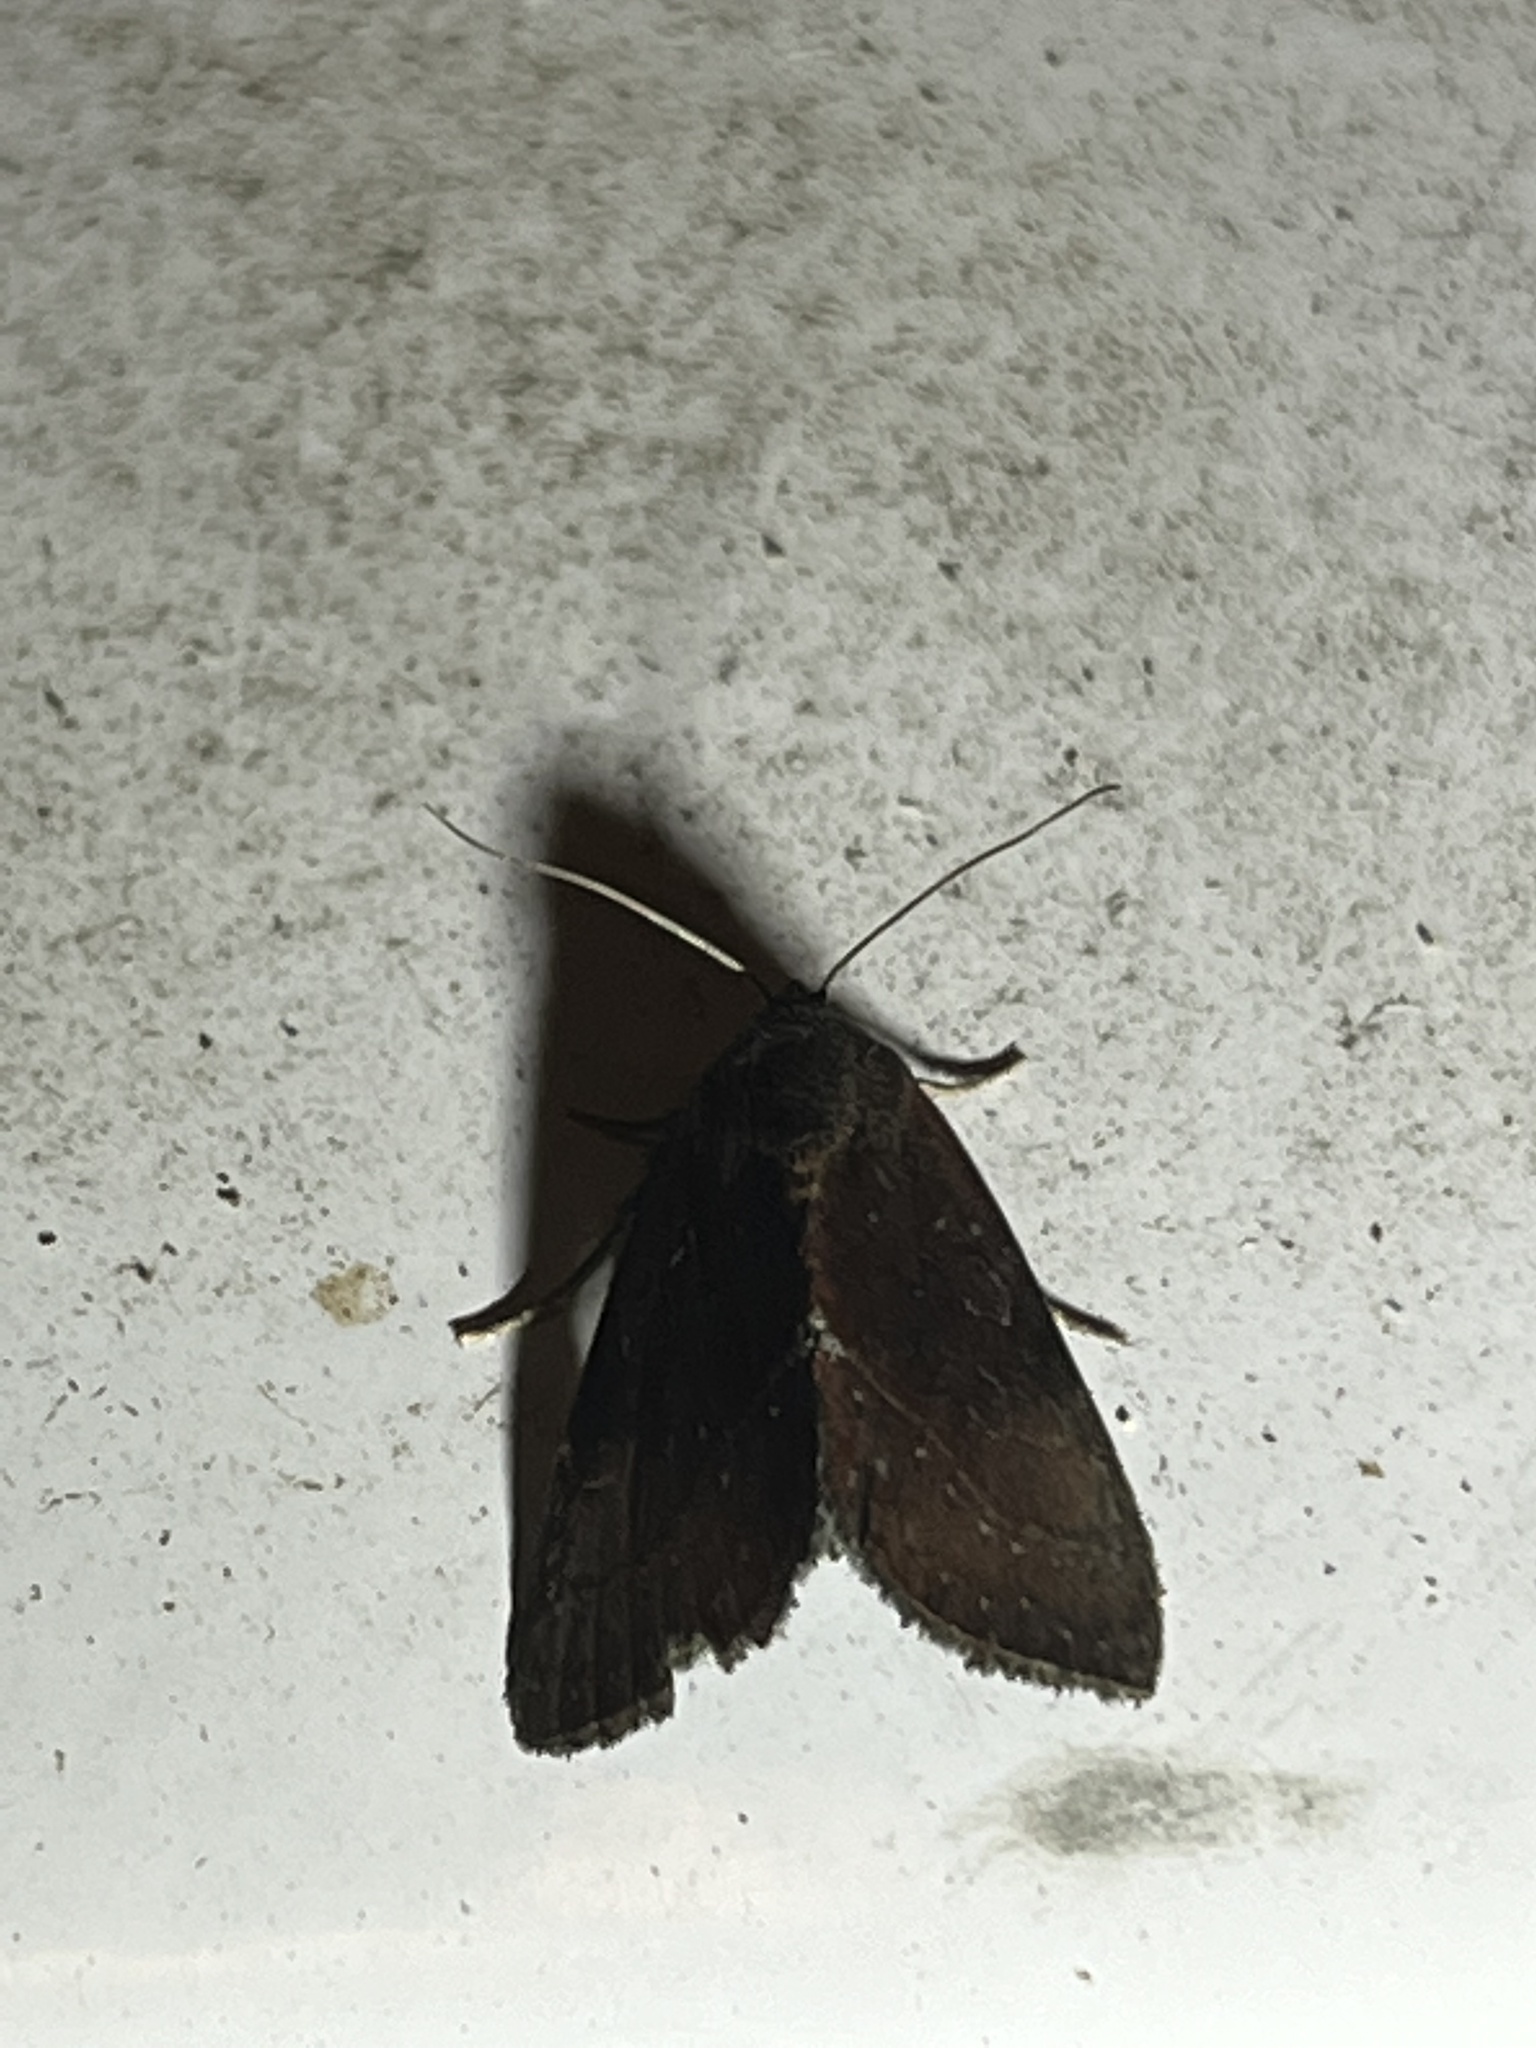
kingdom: Animalia
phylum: Arthropoda
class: Insecta
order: Lepidoptera
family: Noctuidae
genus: Galgula
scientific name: Galgula partita
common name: Wedgeling
